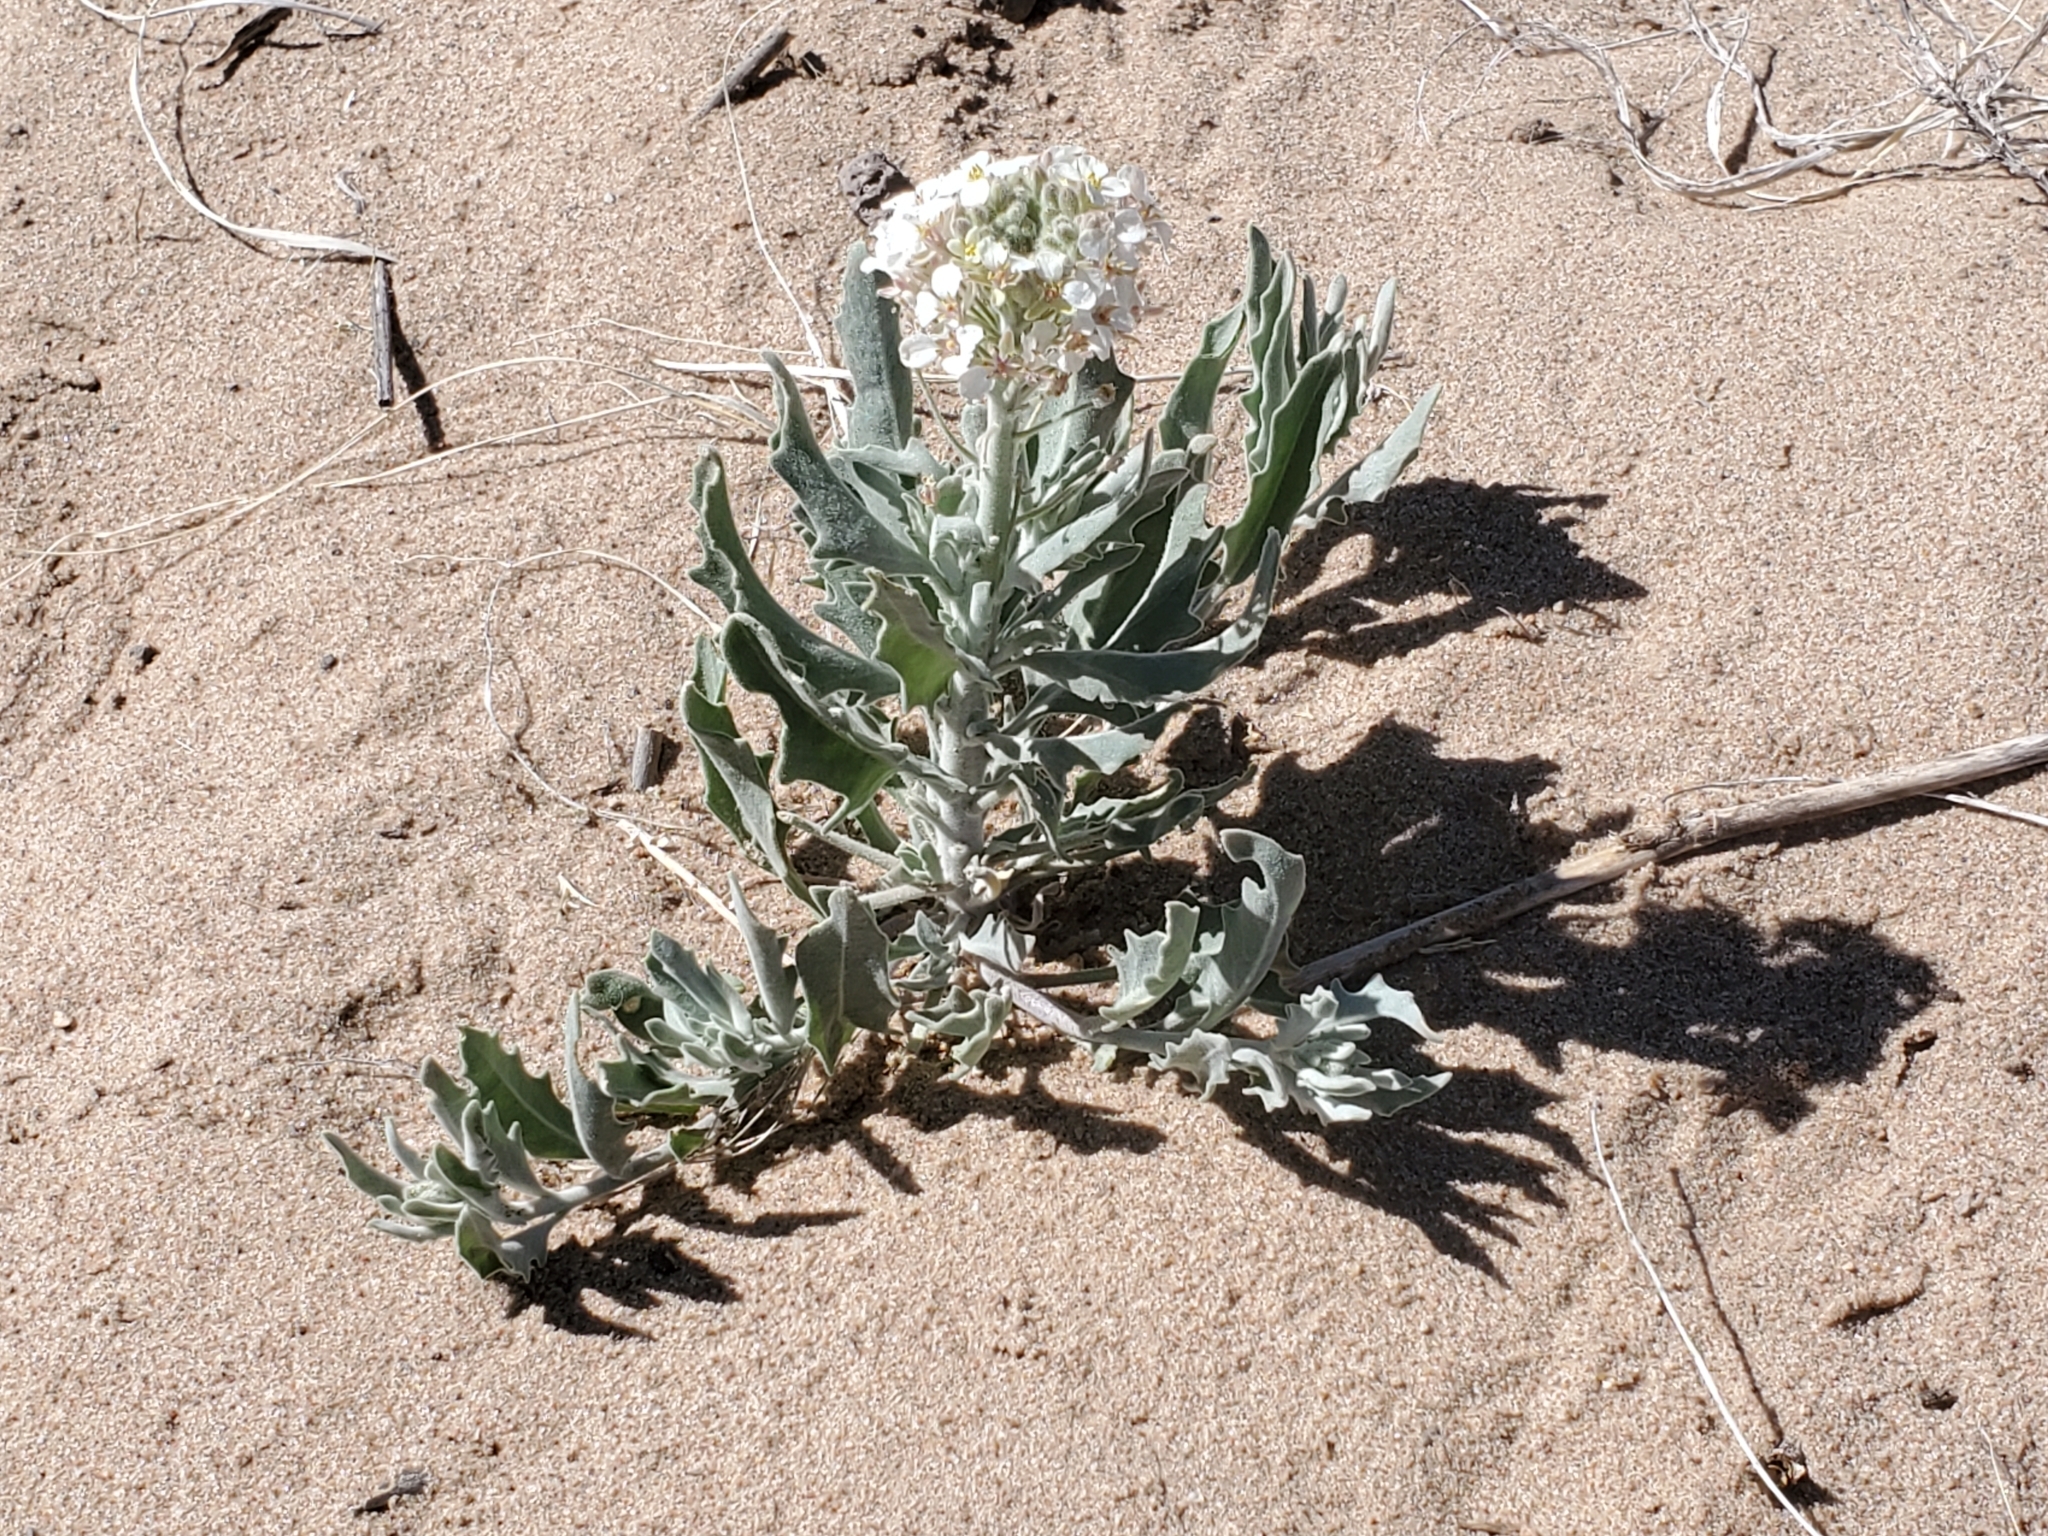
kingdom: Plantae
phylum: Tracheophyta
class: Magnoliopsida
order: Brassicales
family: Brassicaceae
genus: Dimorphocarpa
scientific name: Dimorphocarpa wislizenii
